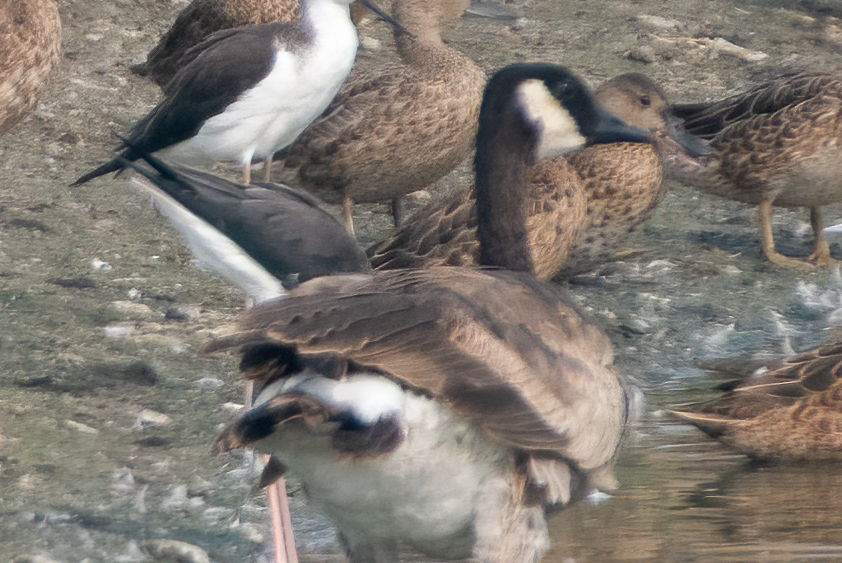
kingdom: Animalia
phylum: Chordata
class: Aves
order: Anseriformes
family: Anatidae
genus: Branta
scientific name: Branta canadensis
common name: Canada goose
